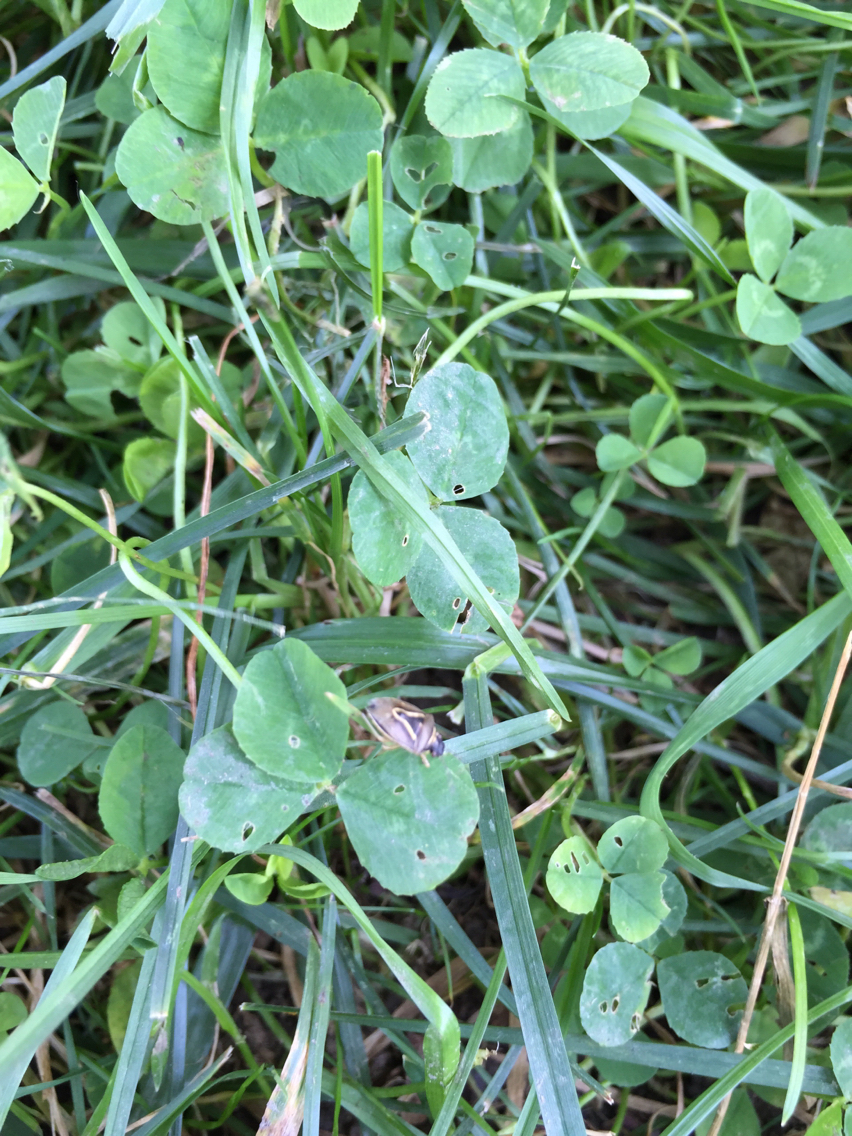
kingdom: Animalia
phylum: Arthropoda
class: Insecta
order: Hemiptera
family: Pentatomidae
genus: Mormidea
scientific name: Mormidea lugens
